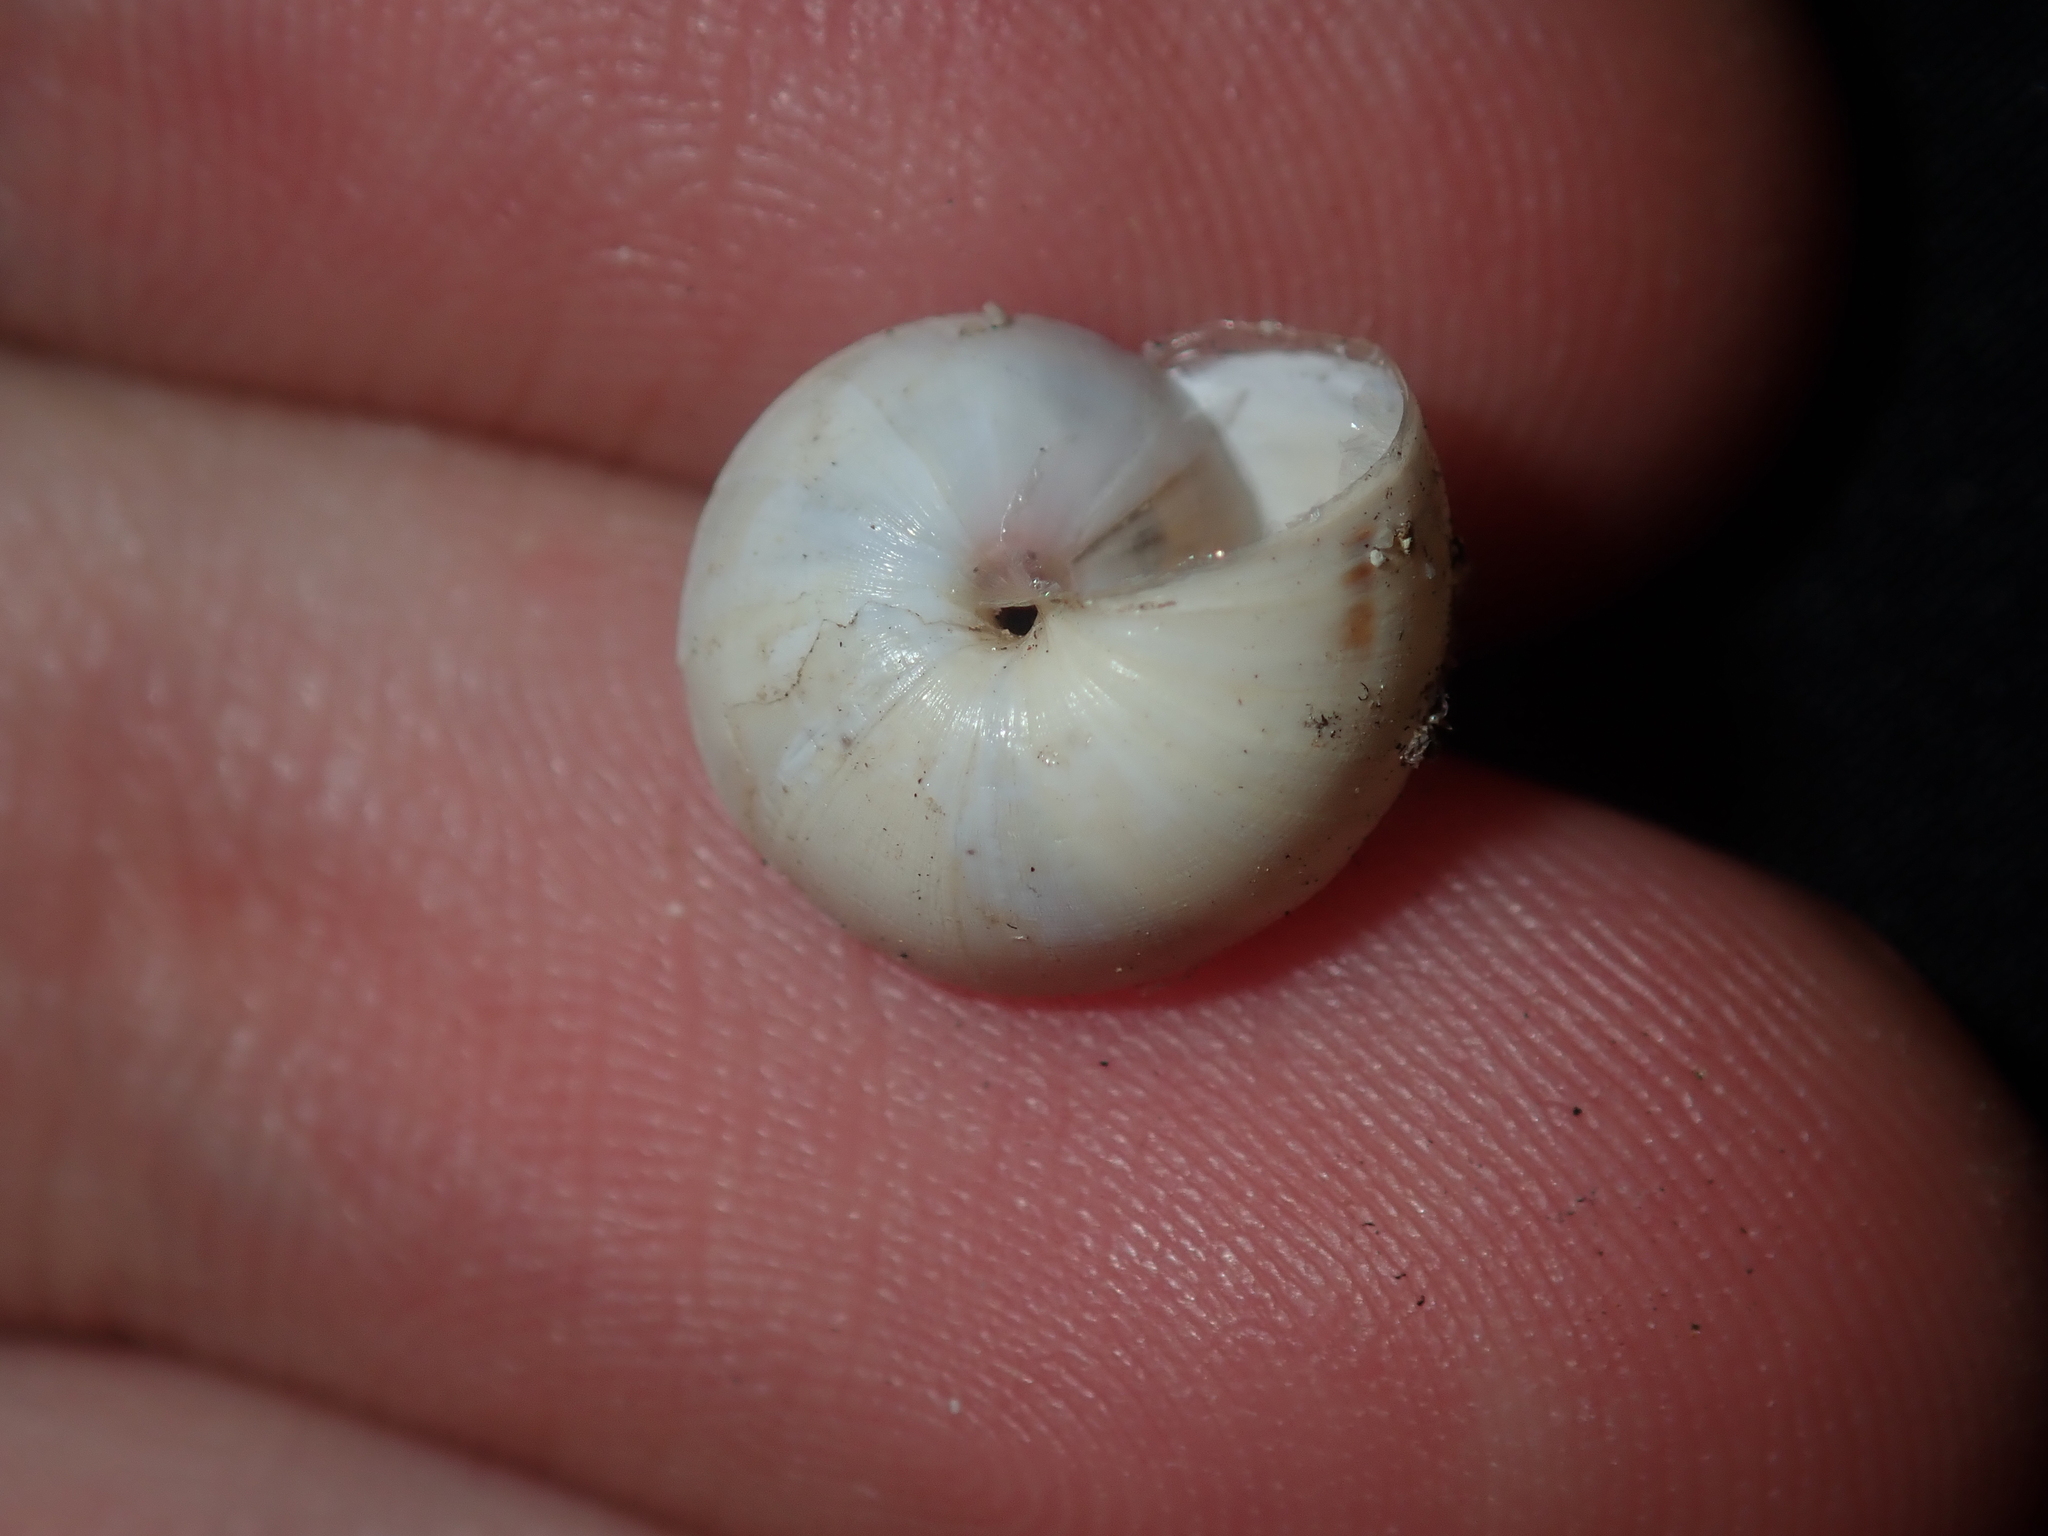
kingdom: Animalia
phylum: Mollusca
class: Gastropoda
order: Stylommatophora
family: Helicidae
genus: Theba
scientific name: Theba pisana
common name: White snail
